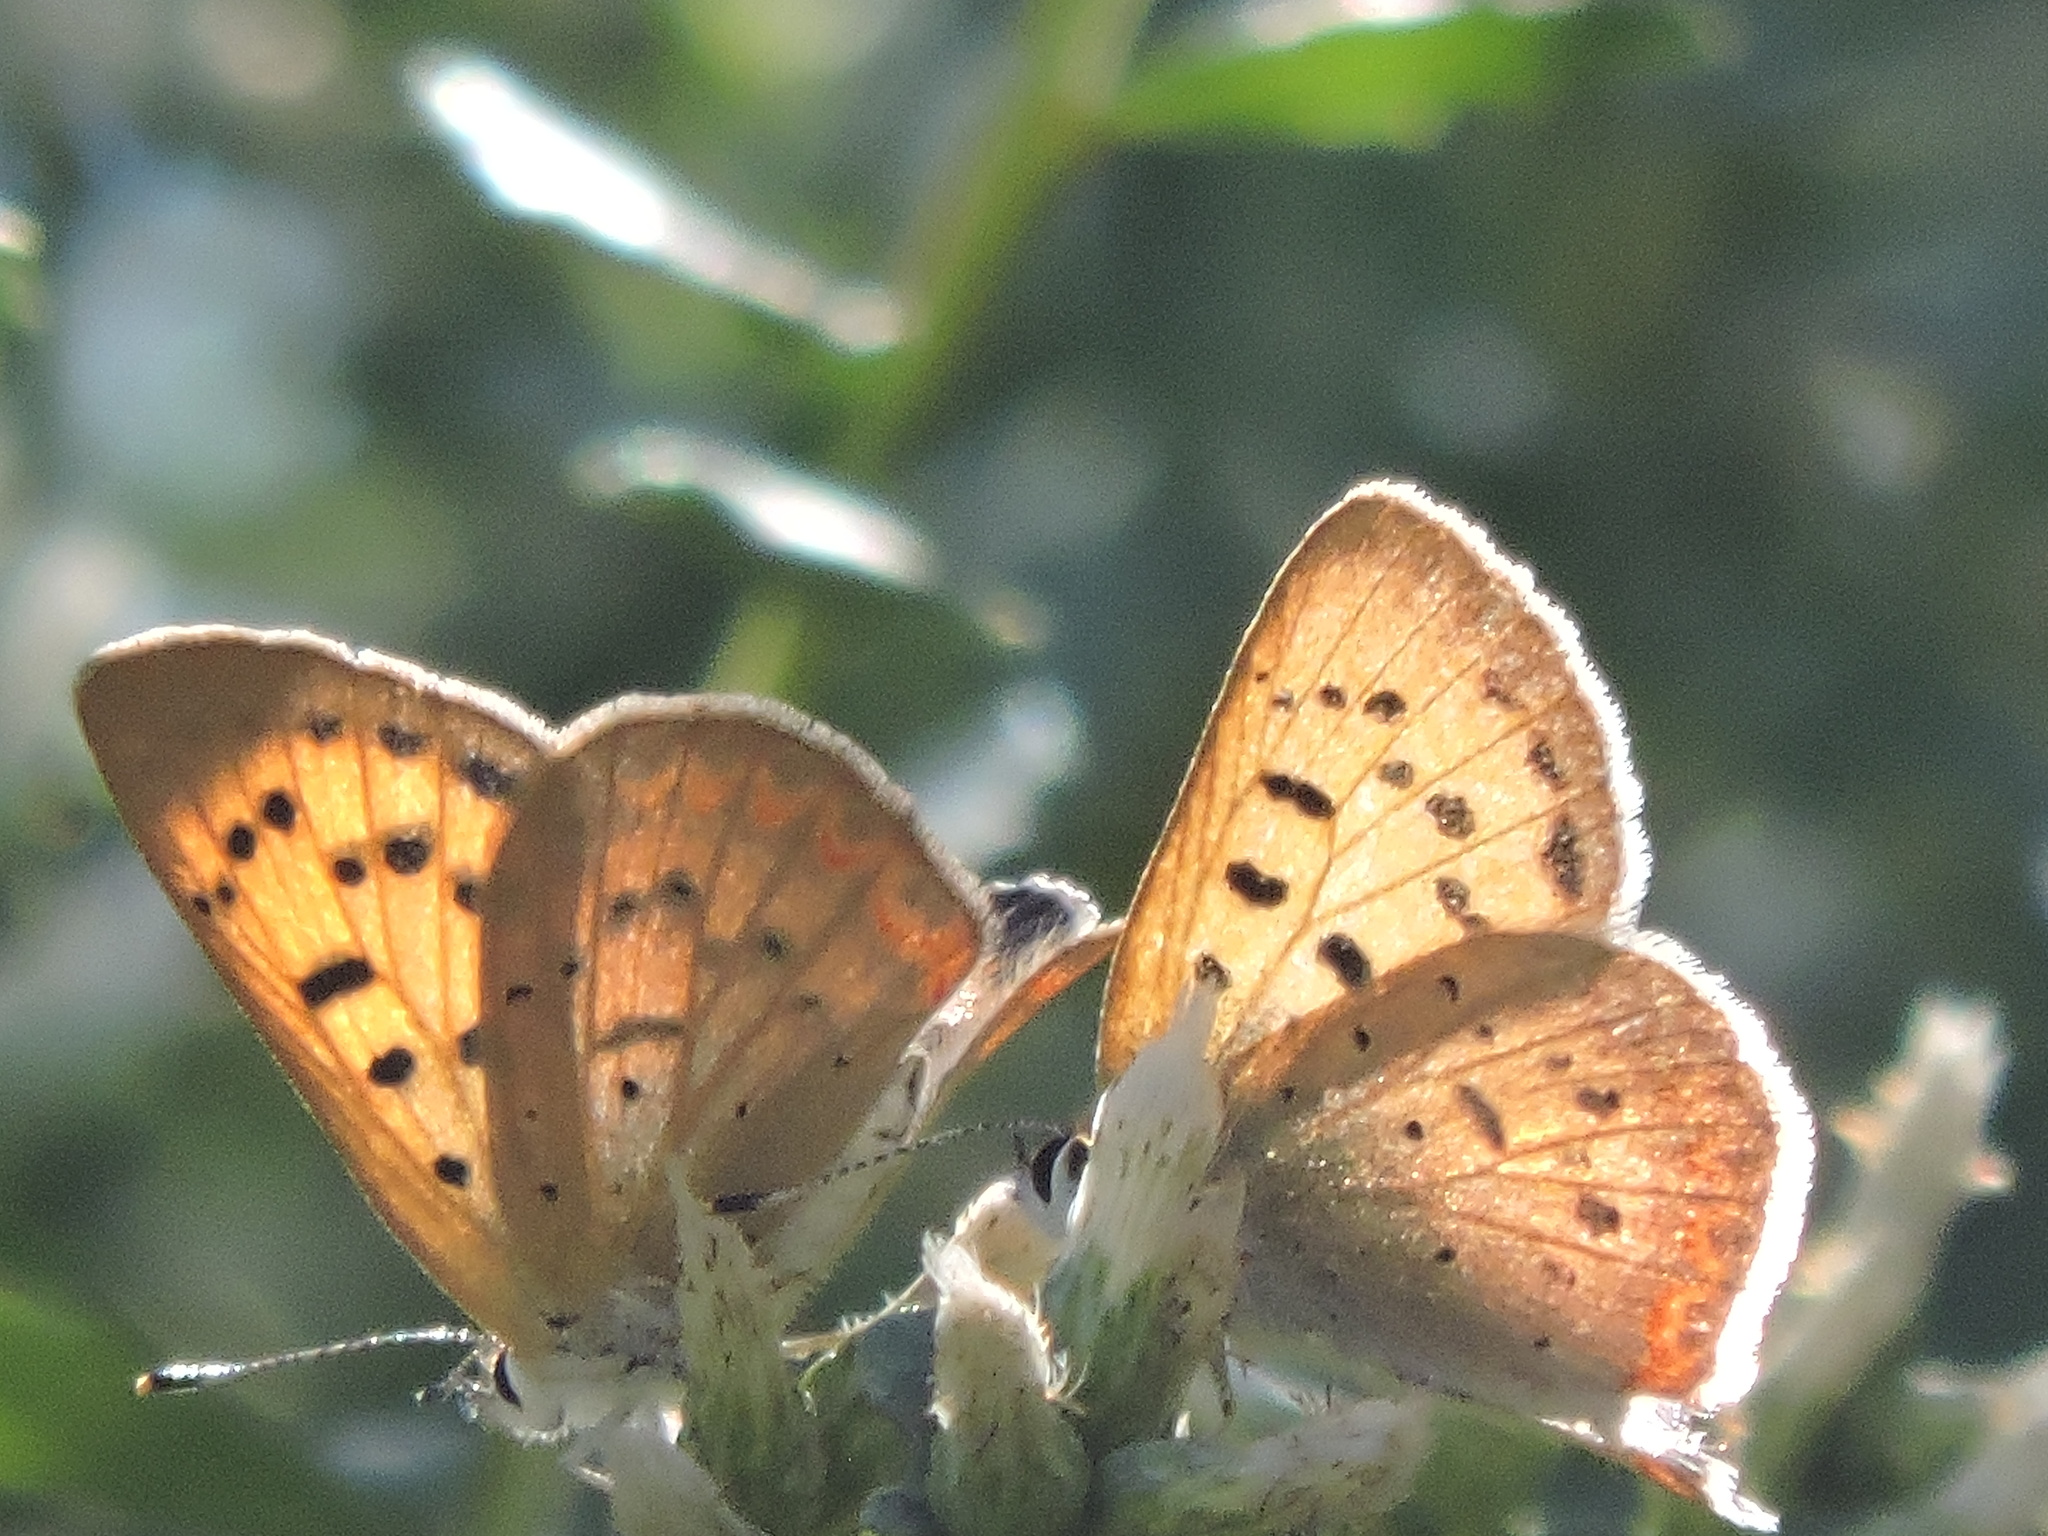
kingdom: Animalia
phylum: Arthropoda
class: Insecta
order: Lepidoptera
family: Lycaenidae
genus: Tharsalea
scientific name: Tharsalea helloides
